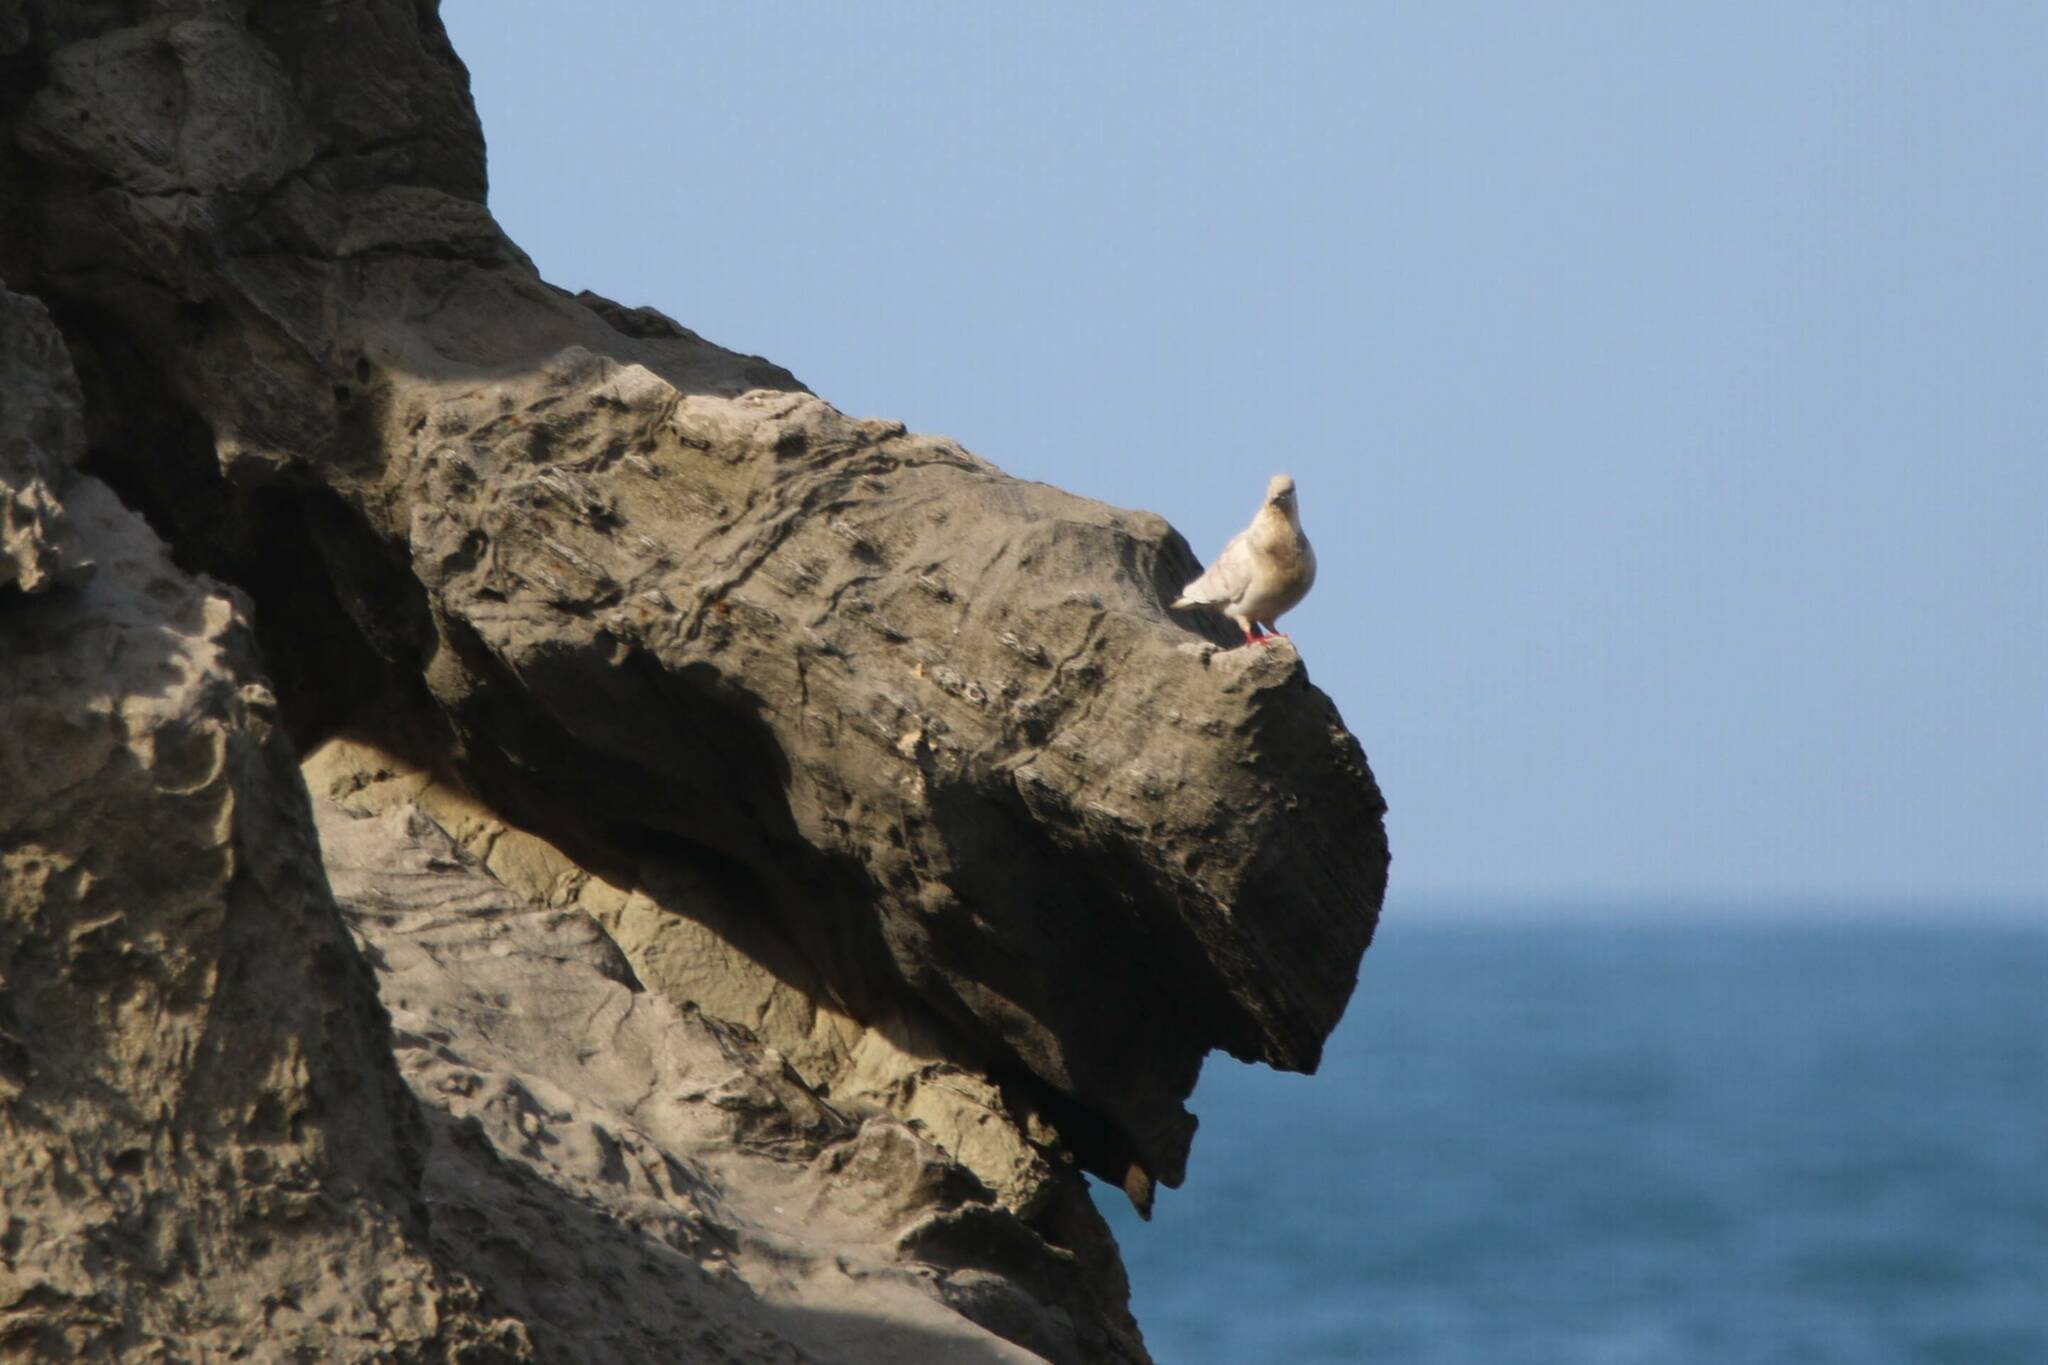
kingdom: Animalia
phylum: Chordata
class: Aves
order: Columbiformes
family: Columbidae
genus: Columba
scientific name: Columba livia
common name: Rock pigeon
